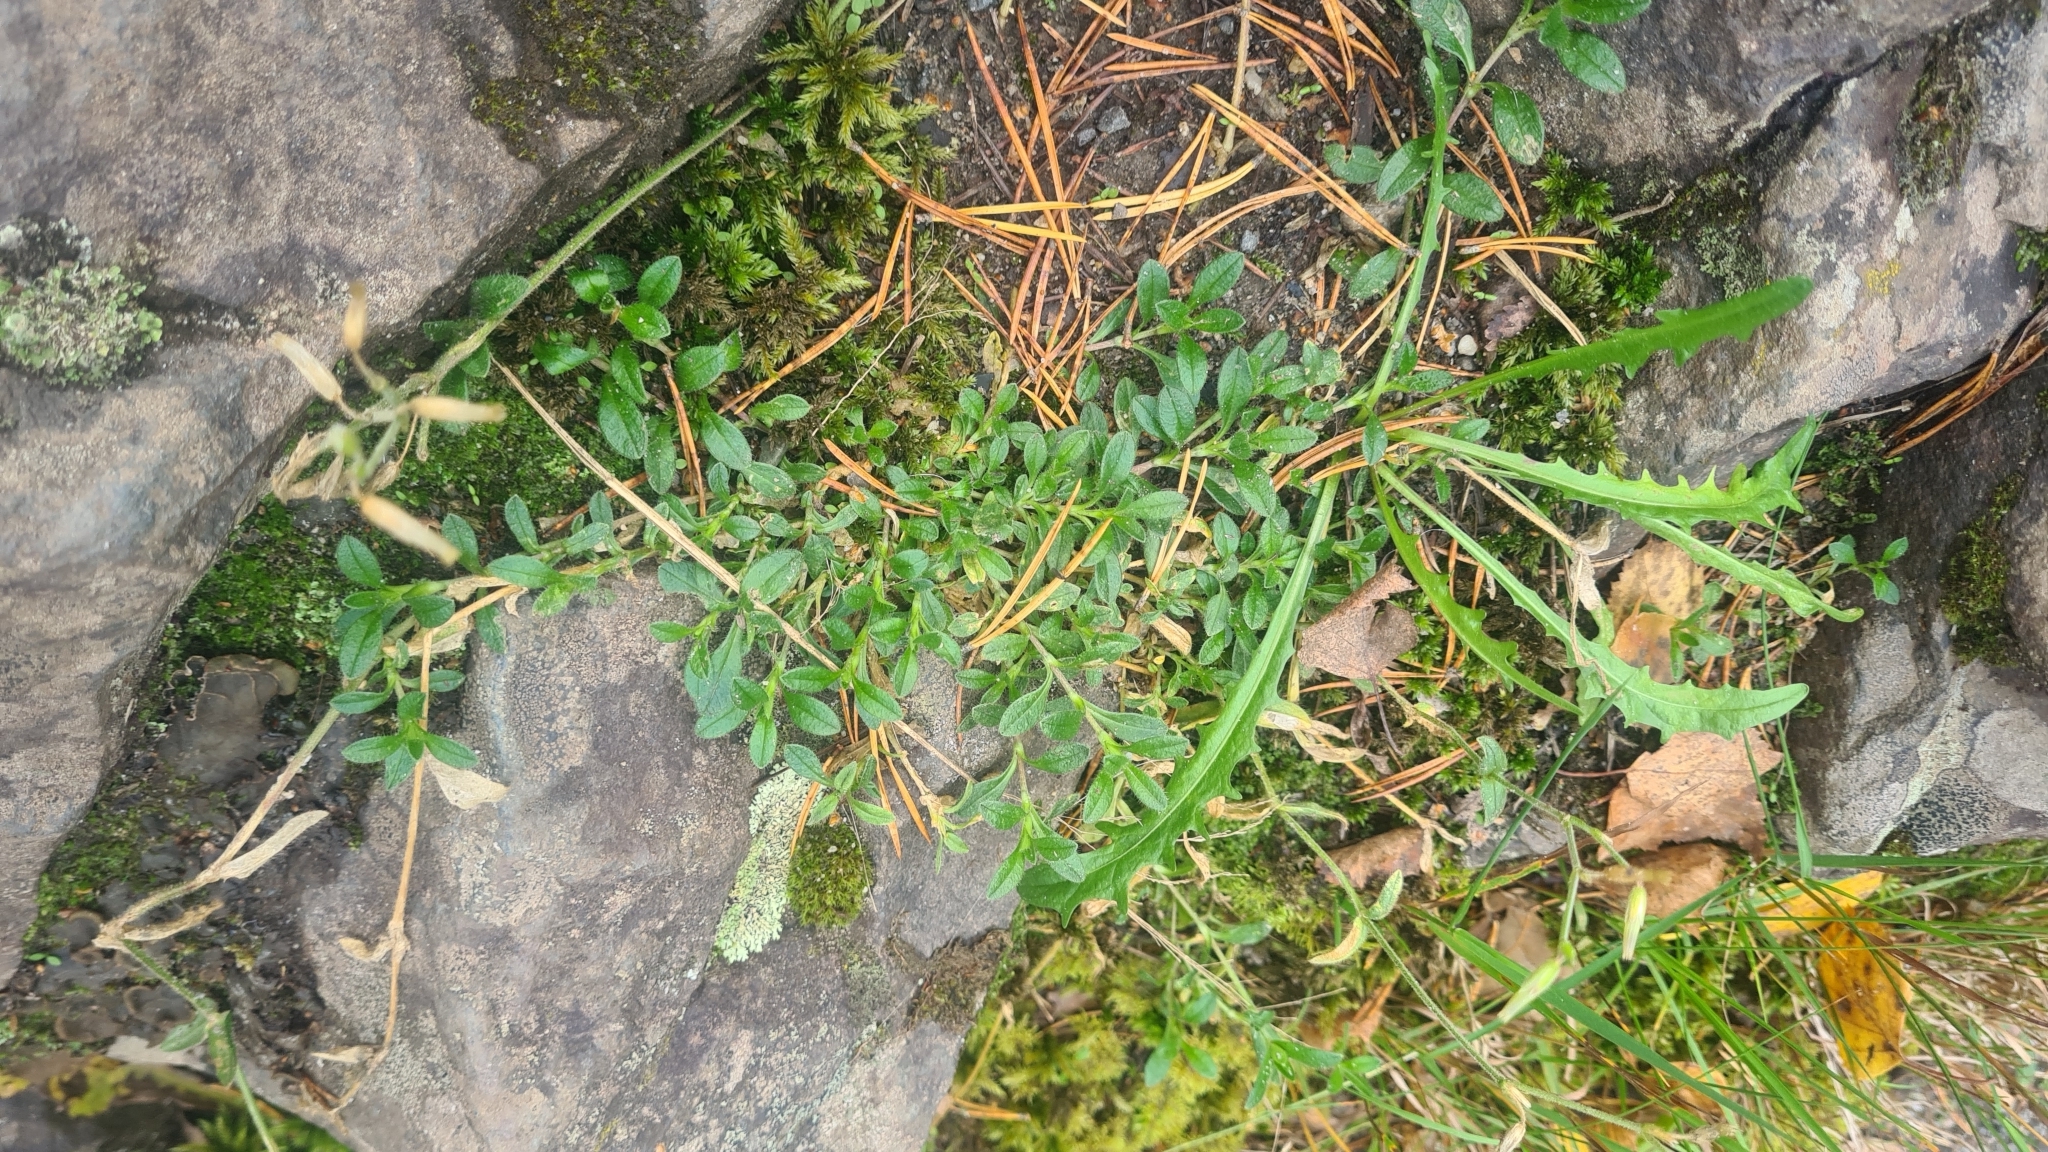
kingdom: Plantae
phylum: Tracheophyta
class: Magnoliopsida
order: Caryophyllales
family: Caryophyllaceae
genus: Cerastium
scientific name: Cerastium holosteoides
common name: Big chickweed
